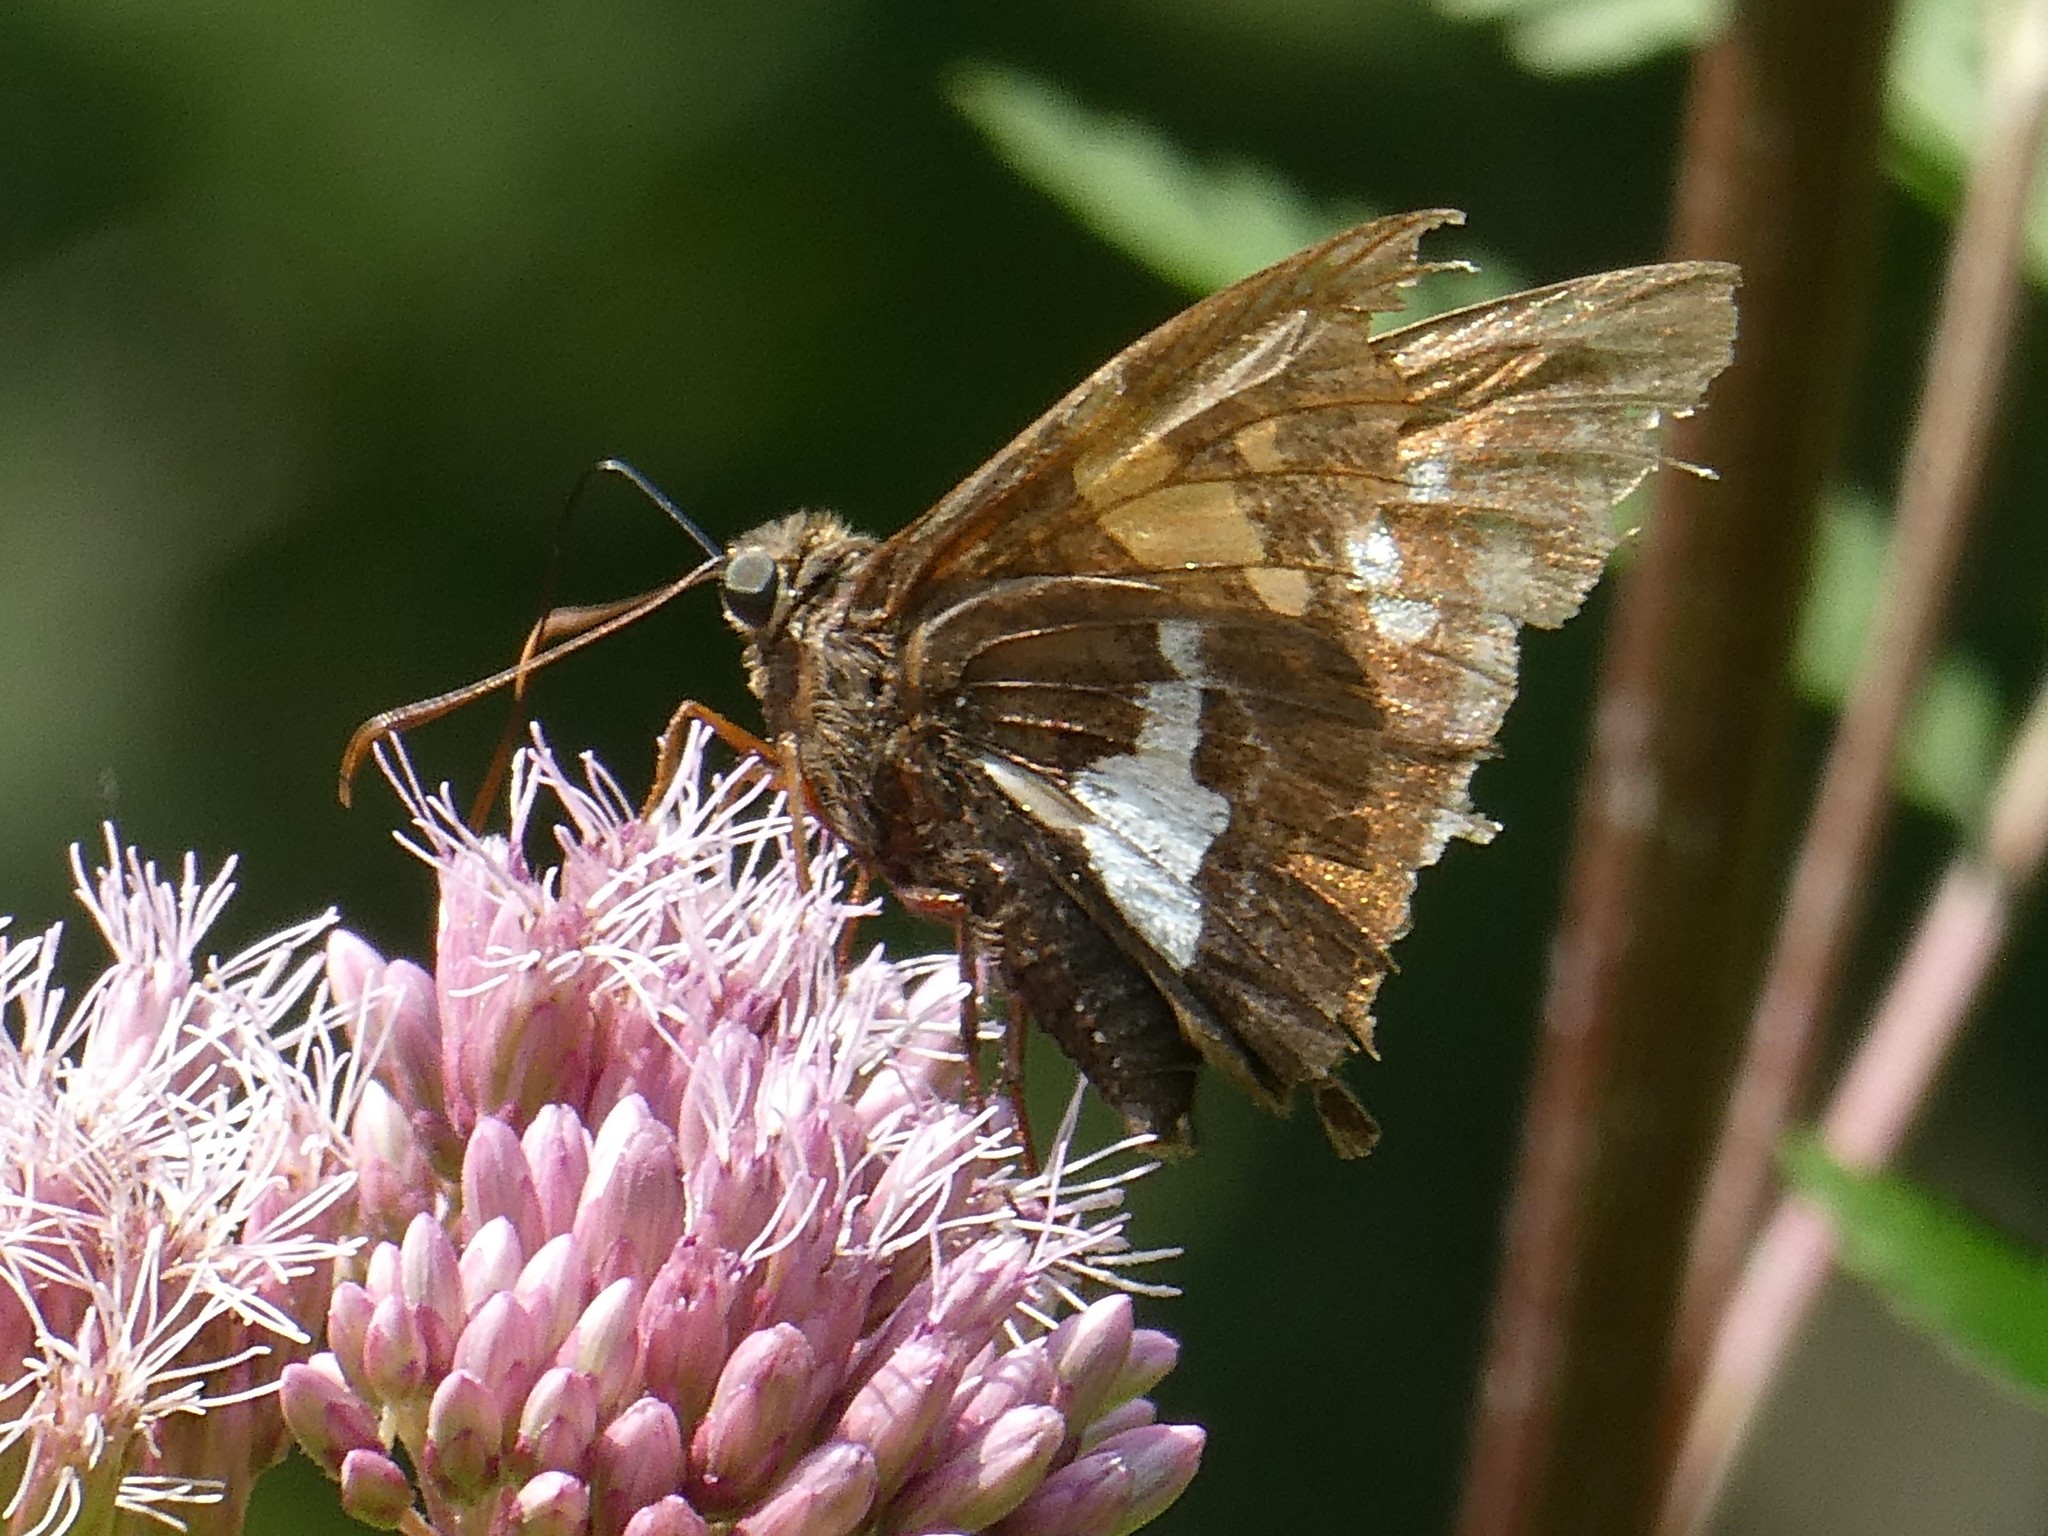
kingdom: Animalia
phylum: Arthropoda
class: Insecta
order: Lepidoptera
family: Hesperiidae
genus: Epargyreus
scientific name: Epargyreus clarus
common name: Silver-spotted skipper
